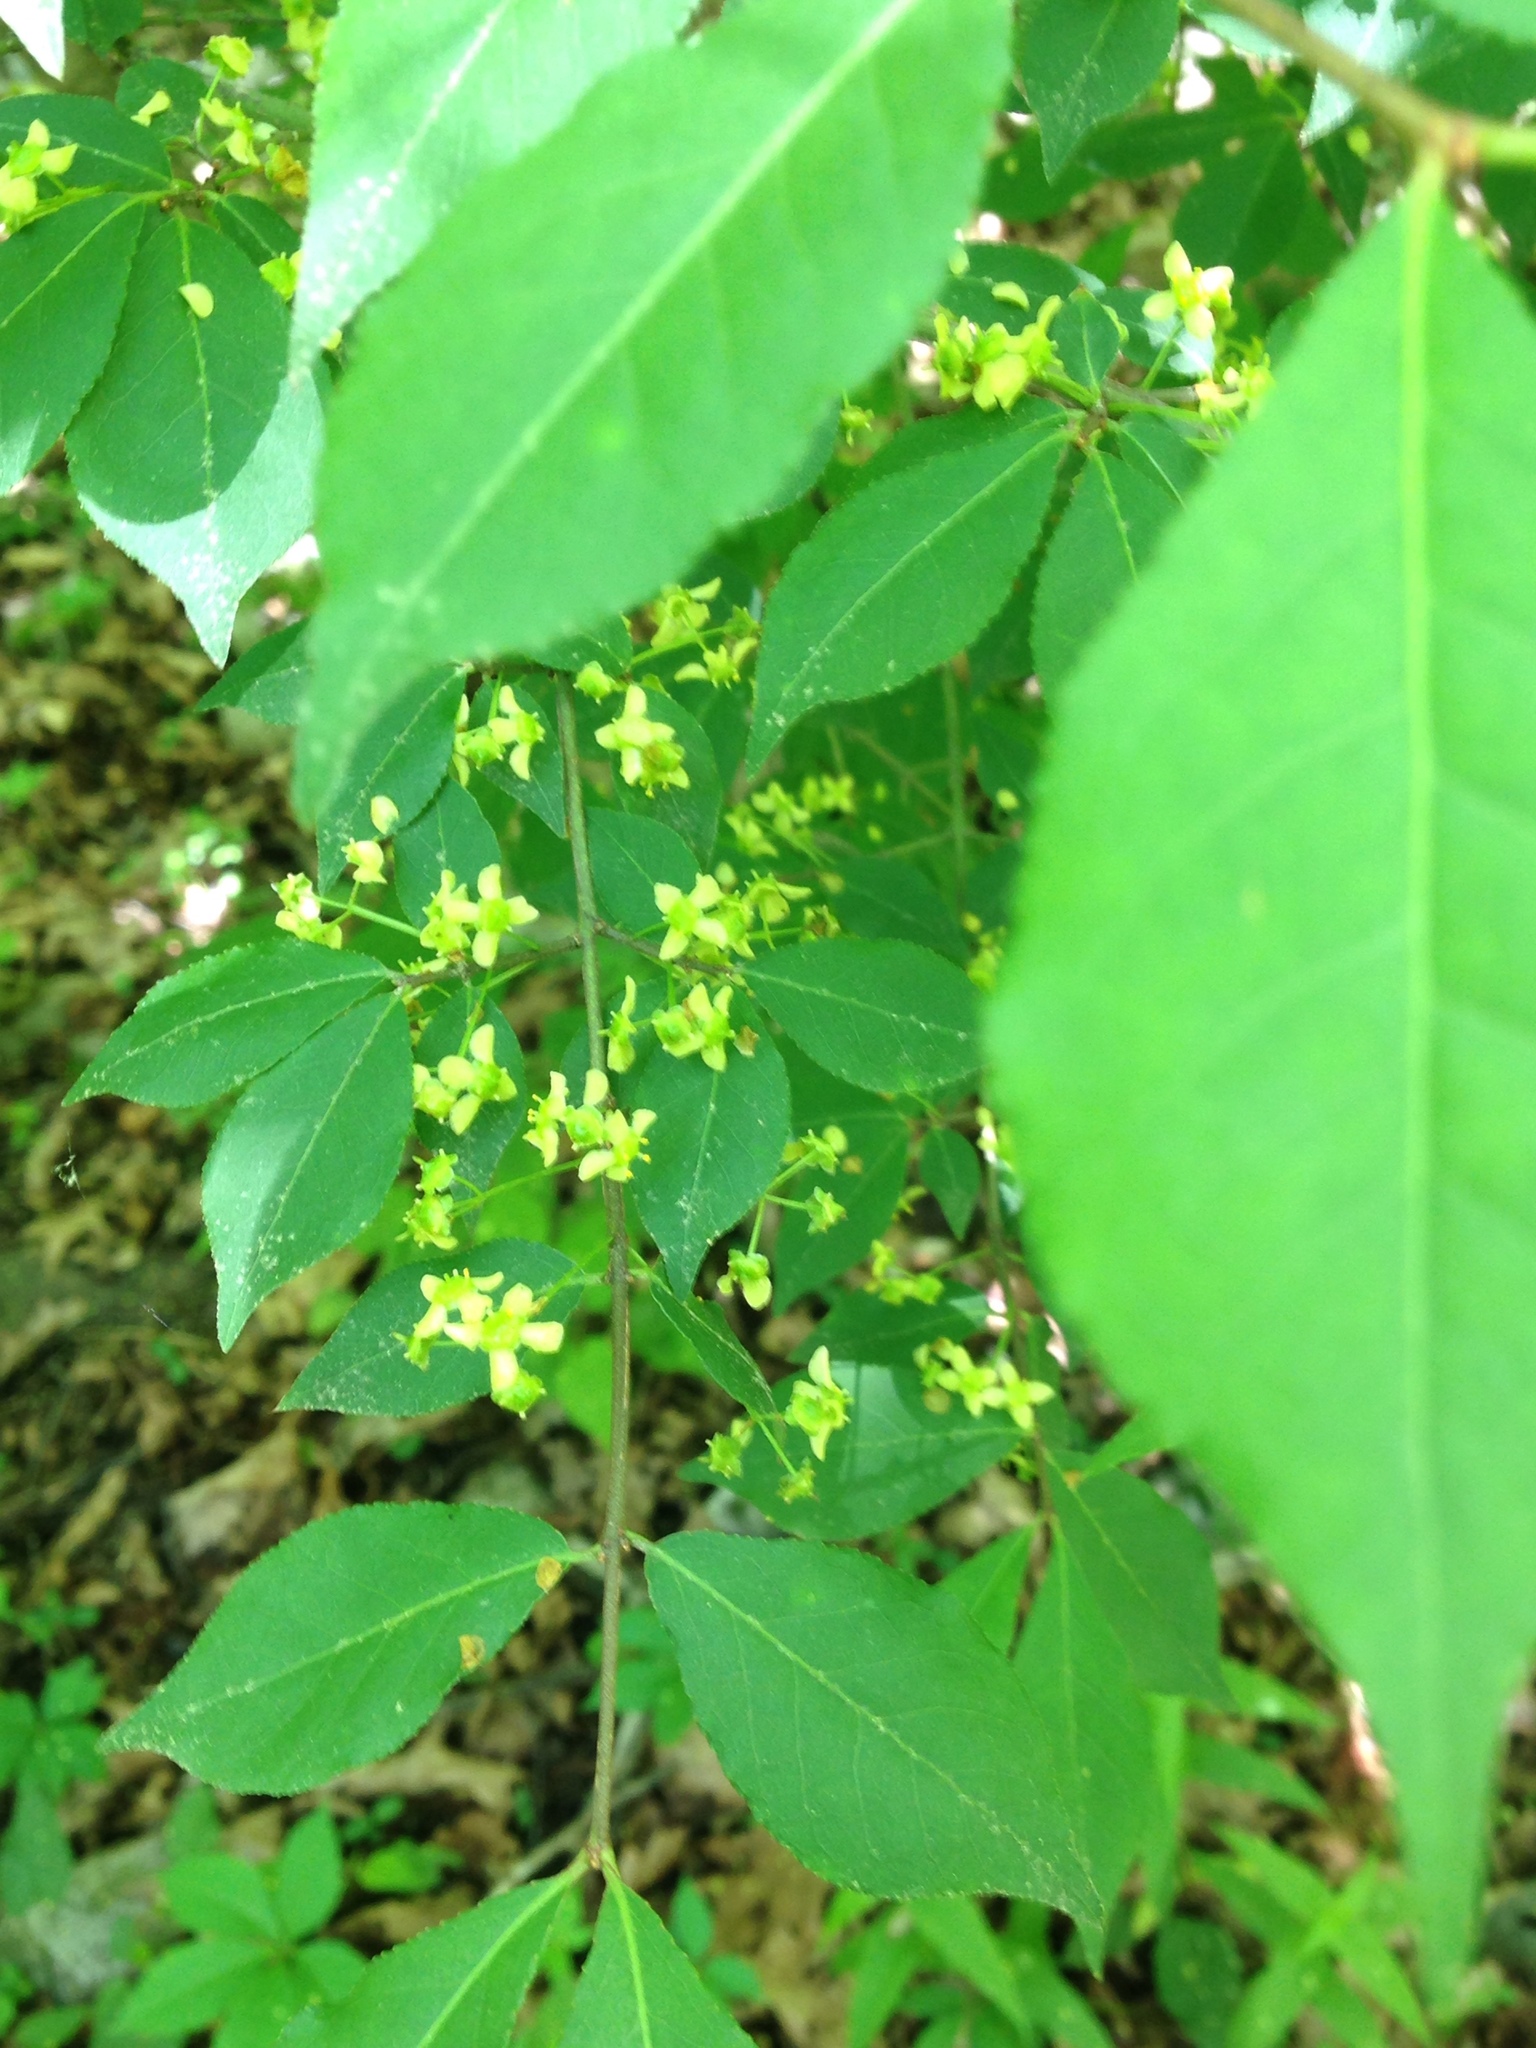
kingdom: Plantae
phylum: Tracheophyta
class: Magnoliopsida
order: Celastrales
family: Celastraceae
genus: Euonymus
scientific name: Euonymus alatus
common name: Winged euonymus
